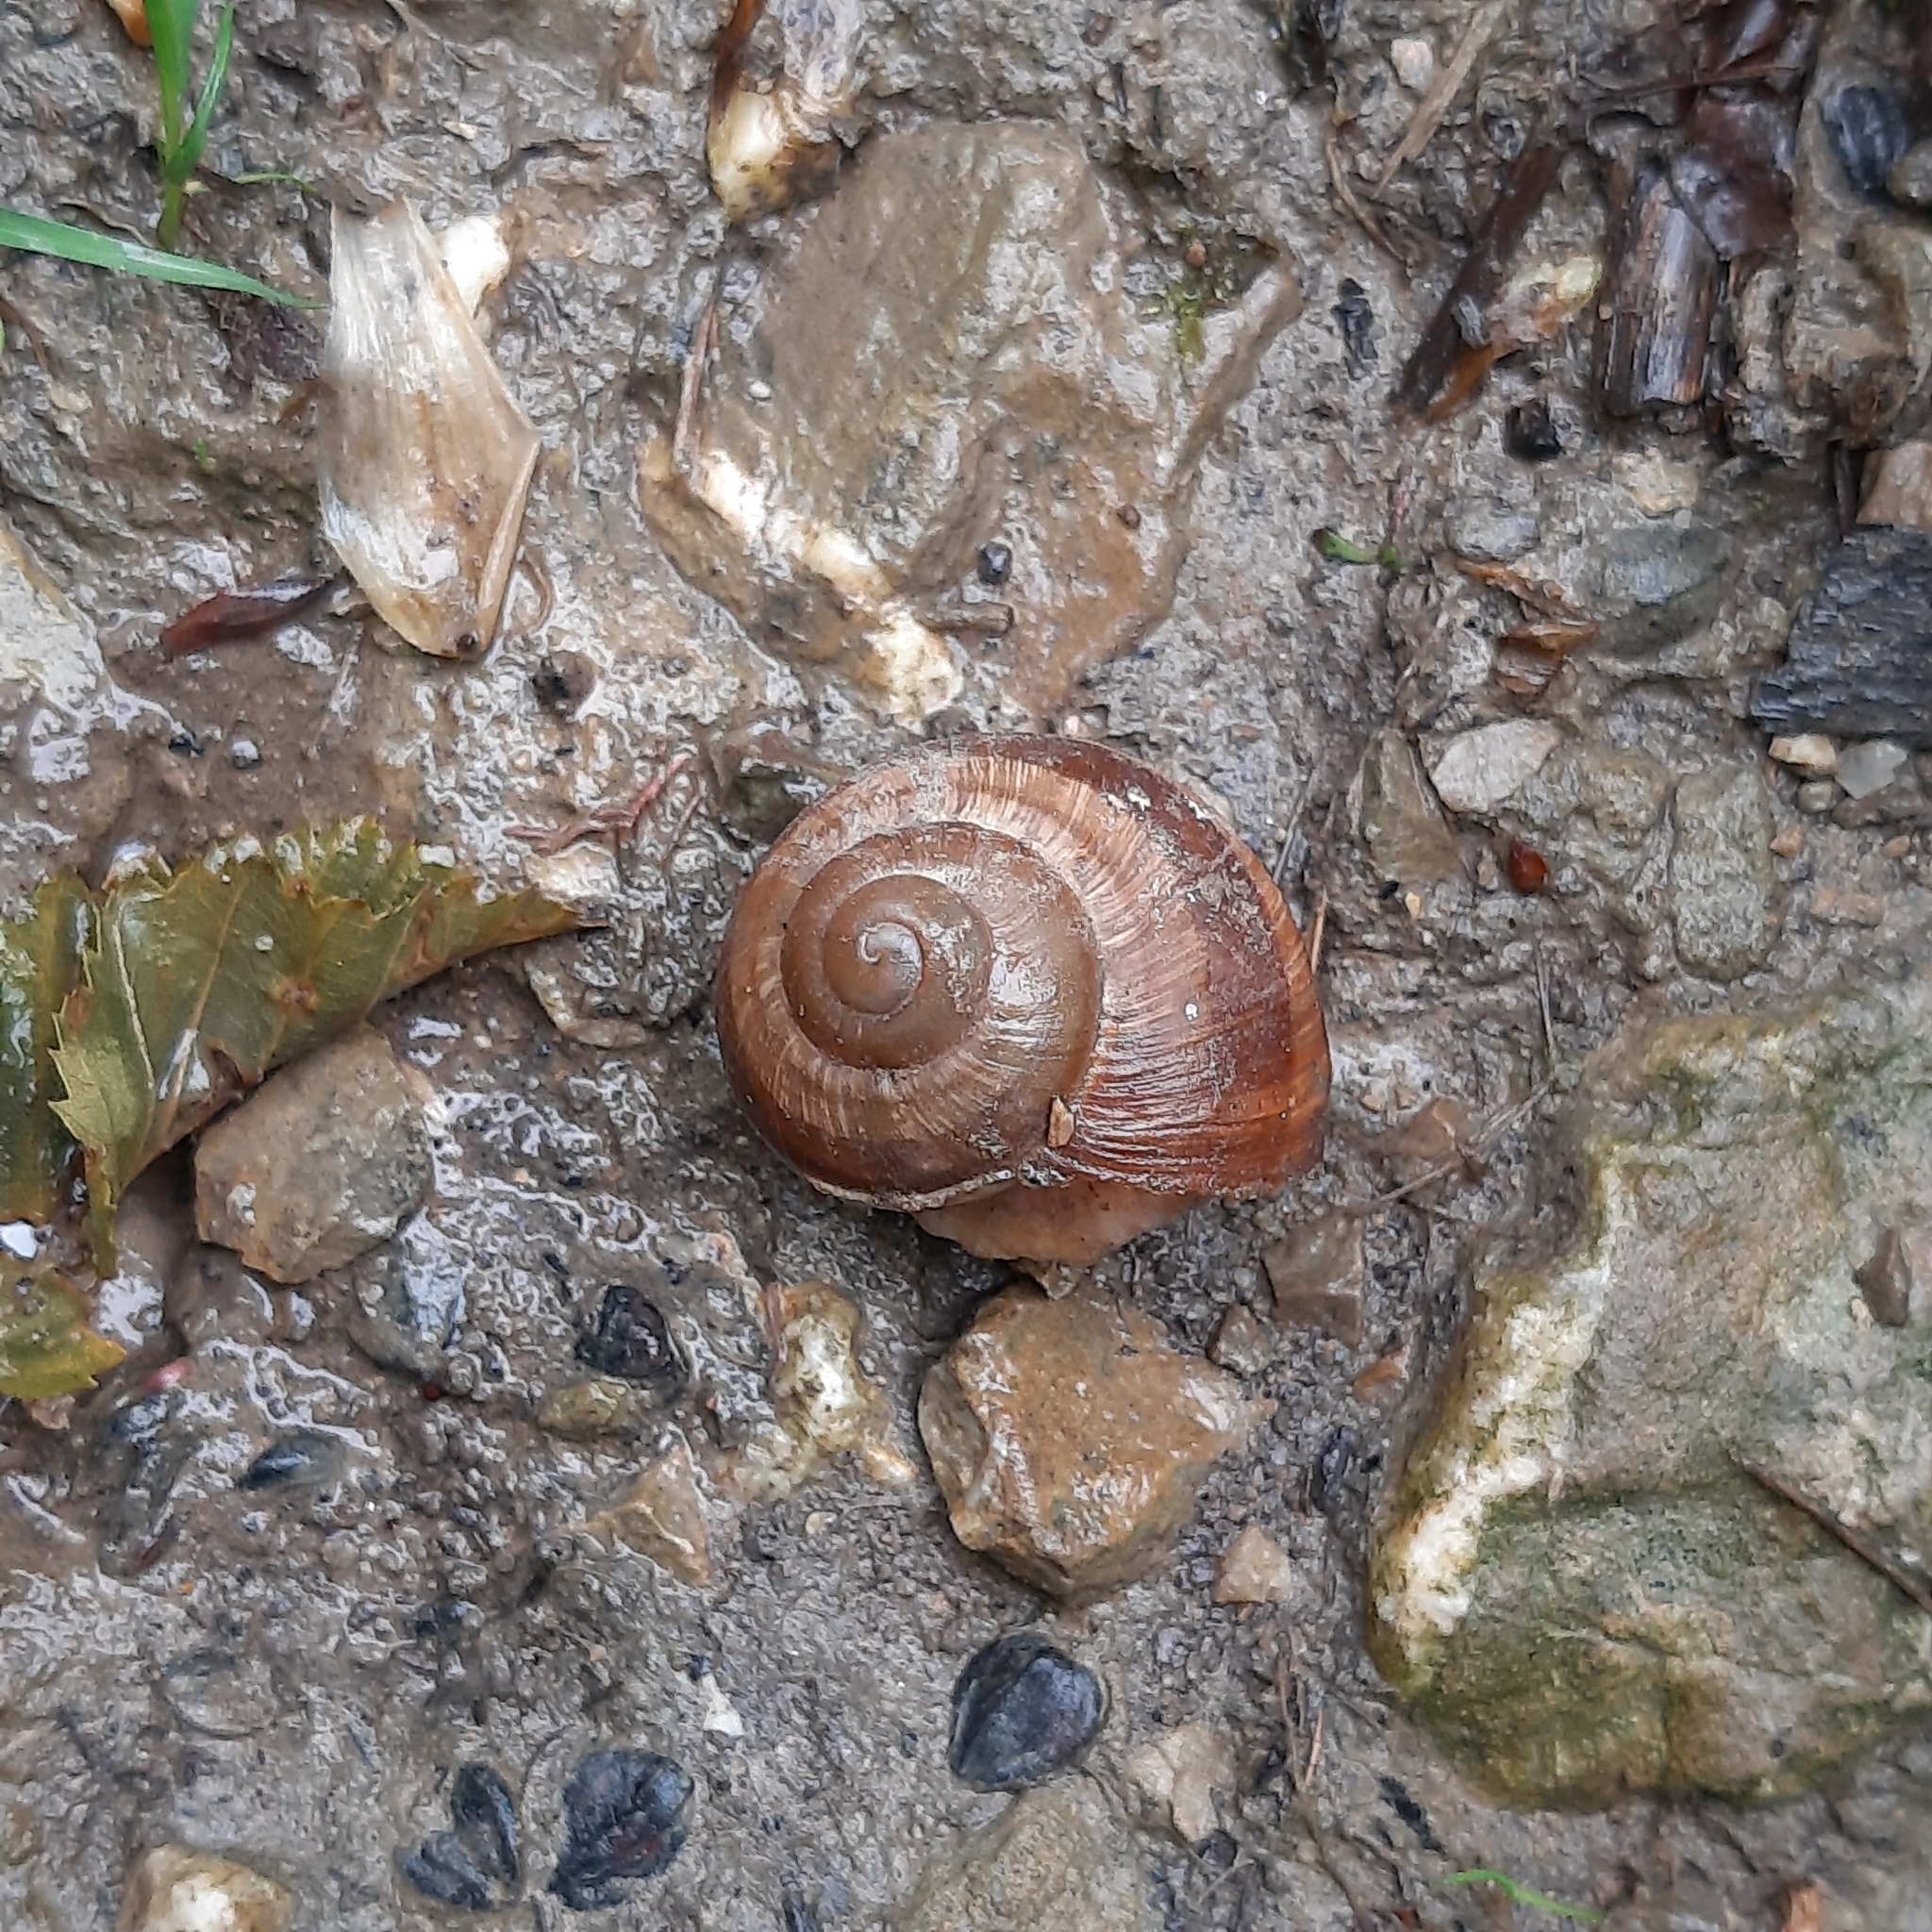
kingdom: Animalia
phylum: Mollusca
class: Gastropoda
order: Stylommatophora
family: Helicidae
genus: Helix
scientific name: Helix pomatia
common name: Roman snail
